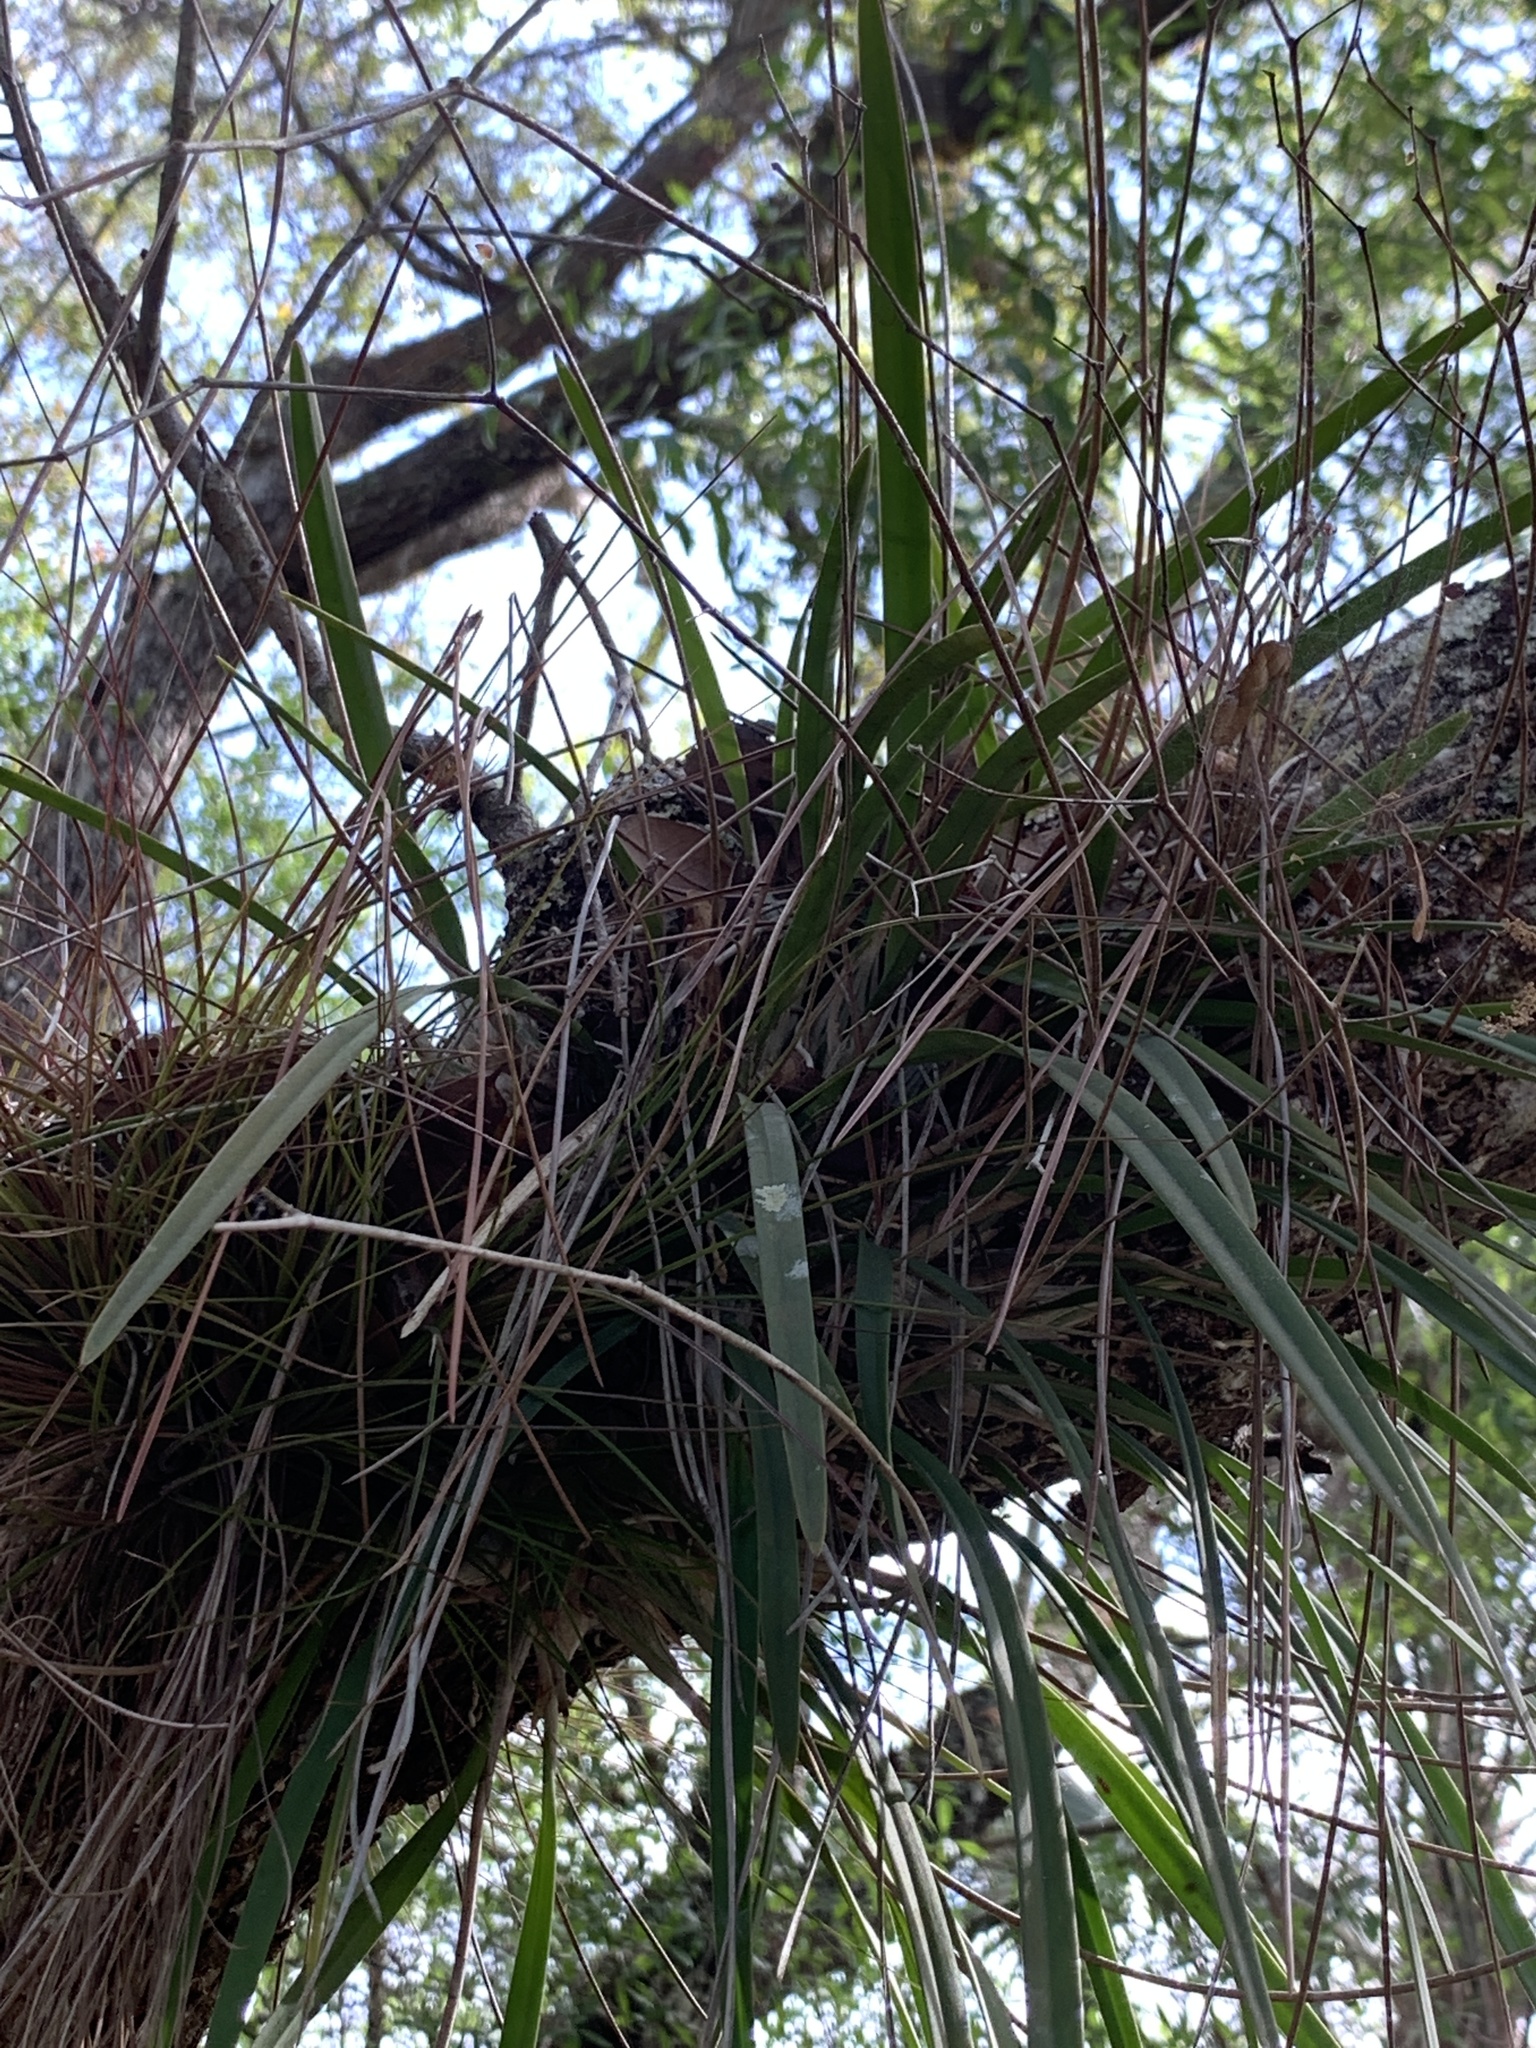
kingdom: Plantae
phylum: Tracheophyta
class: Liliopsida
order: Asparagales
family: Orchidaceae
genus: Encyclia
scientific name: Encyclia tampensis
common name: Florida butterfly orchid
